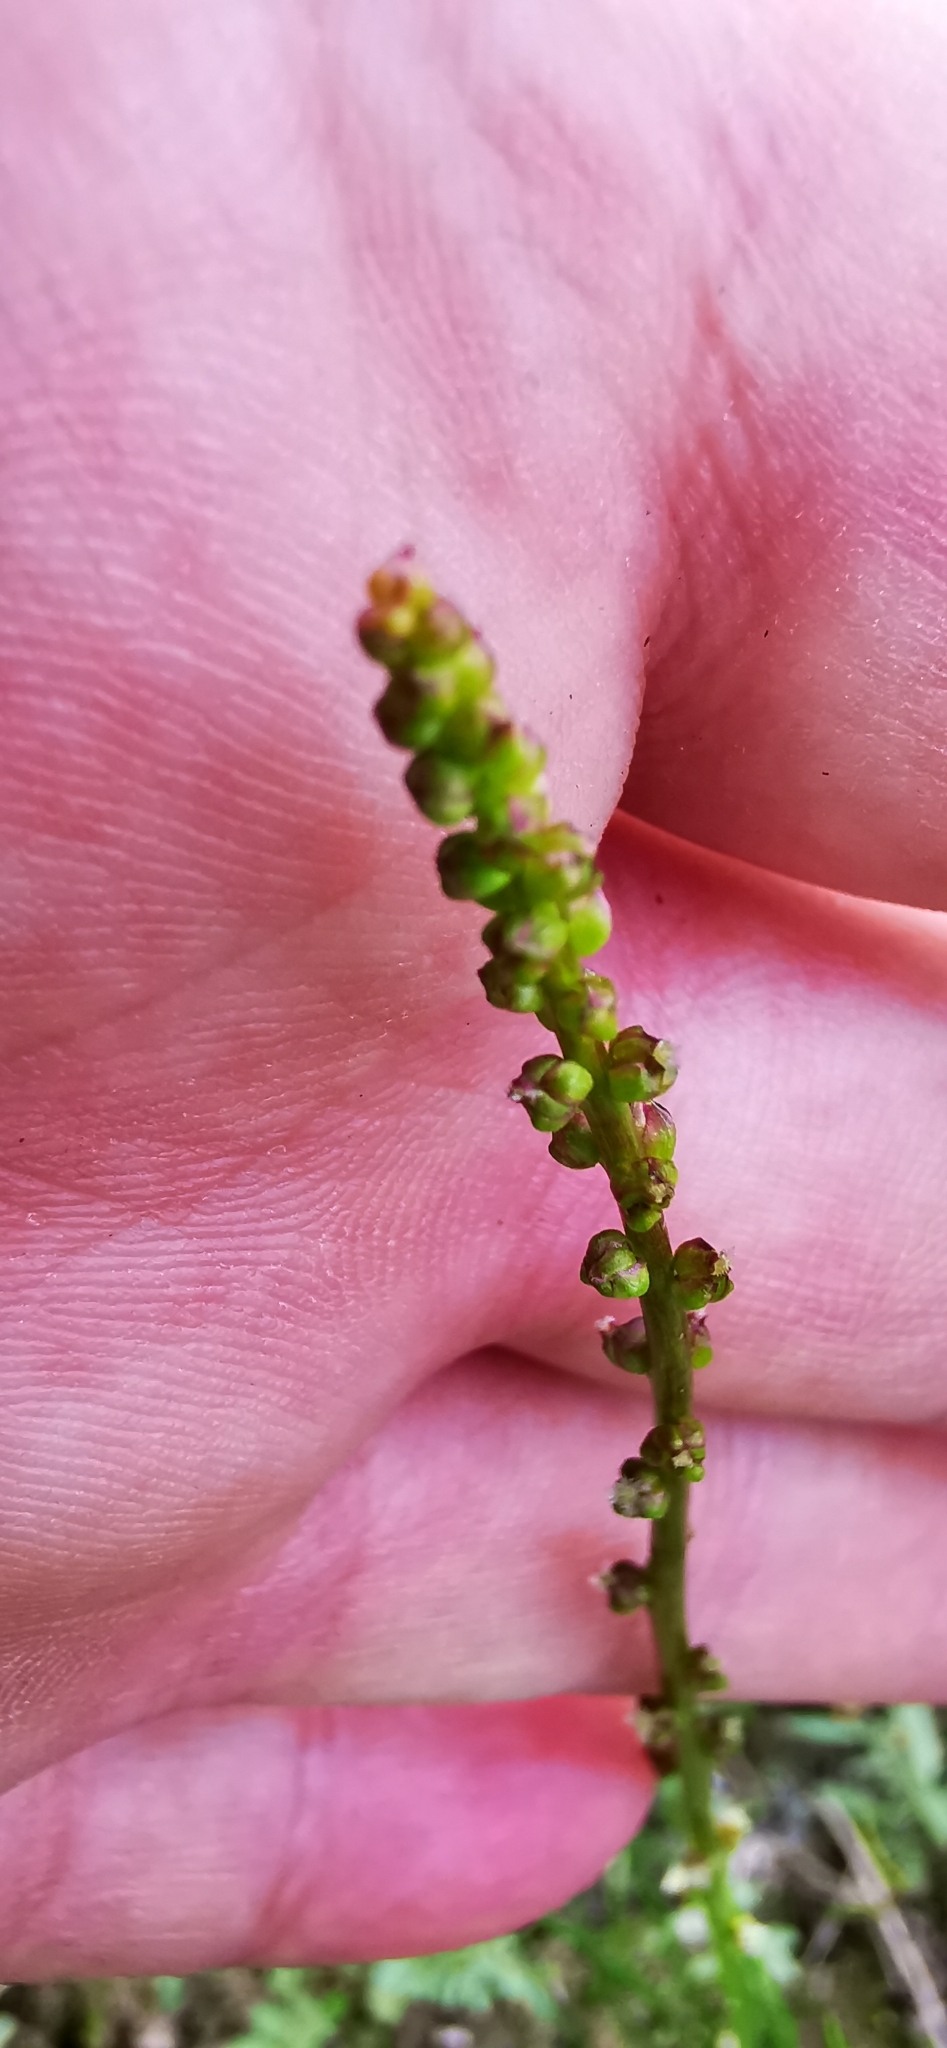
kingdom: Plantae
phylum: Tracheophyta
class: Liliopsida
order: Alismatales
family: Juncaginaceae
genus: Triglochin
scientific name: Triglochin palustris
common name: Marsh arrowgrass
